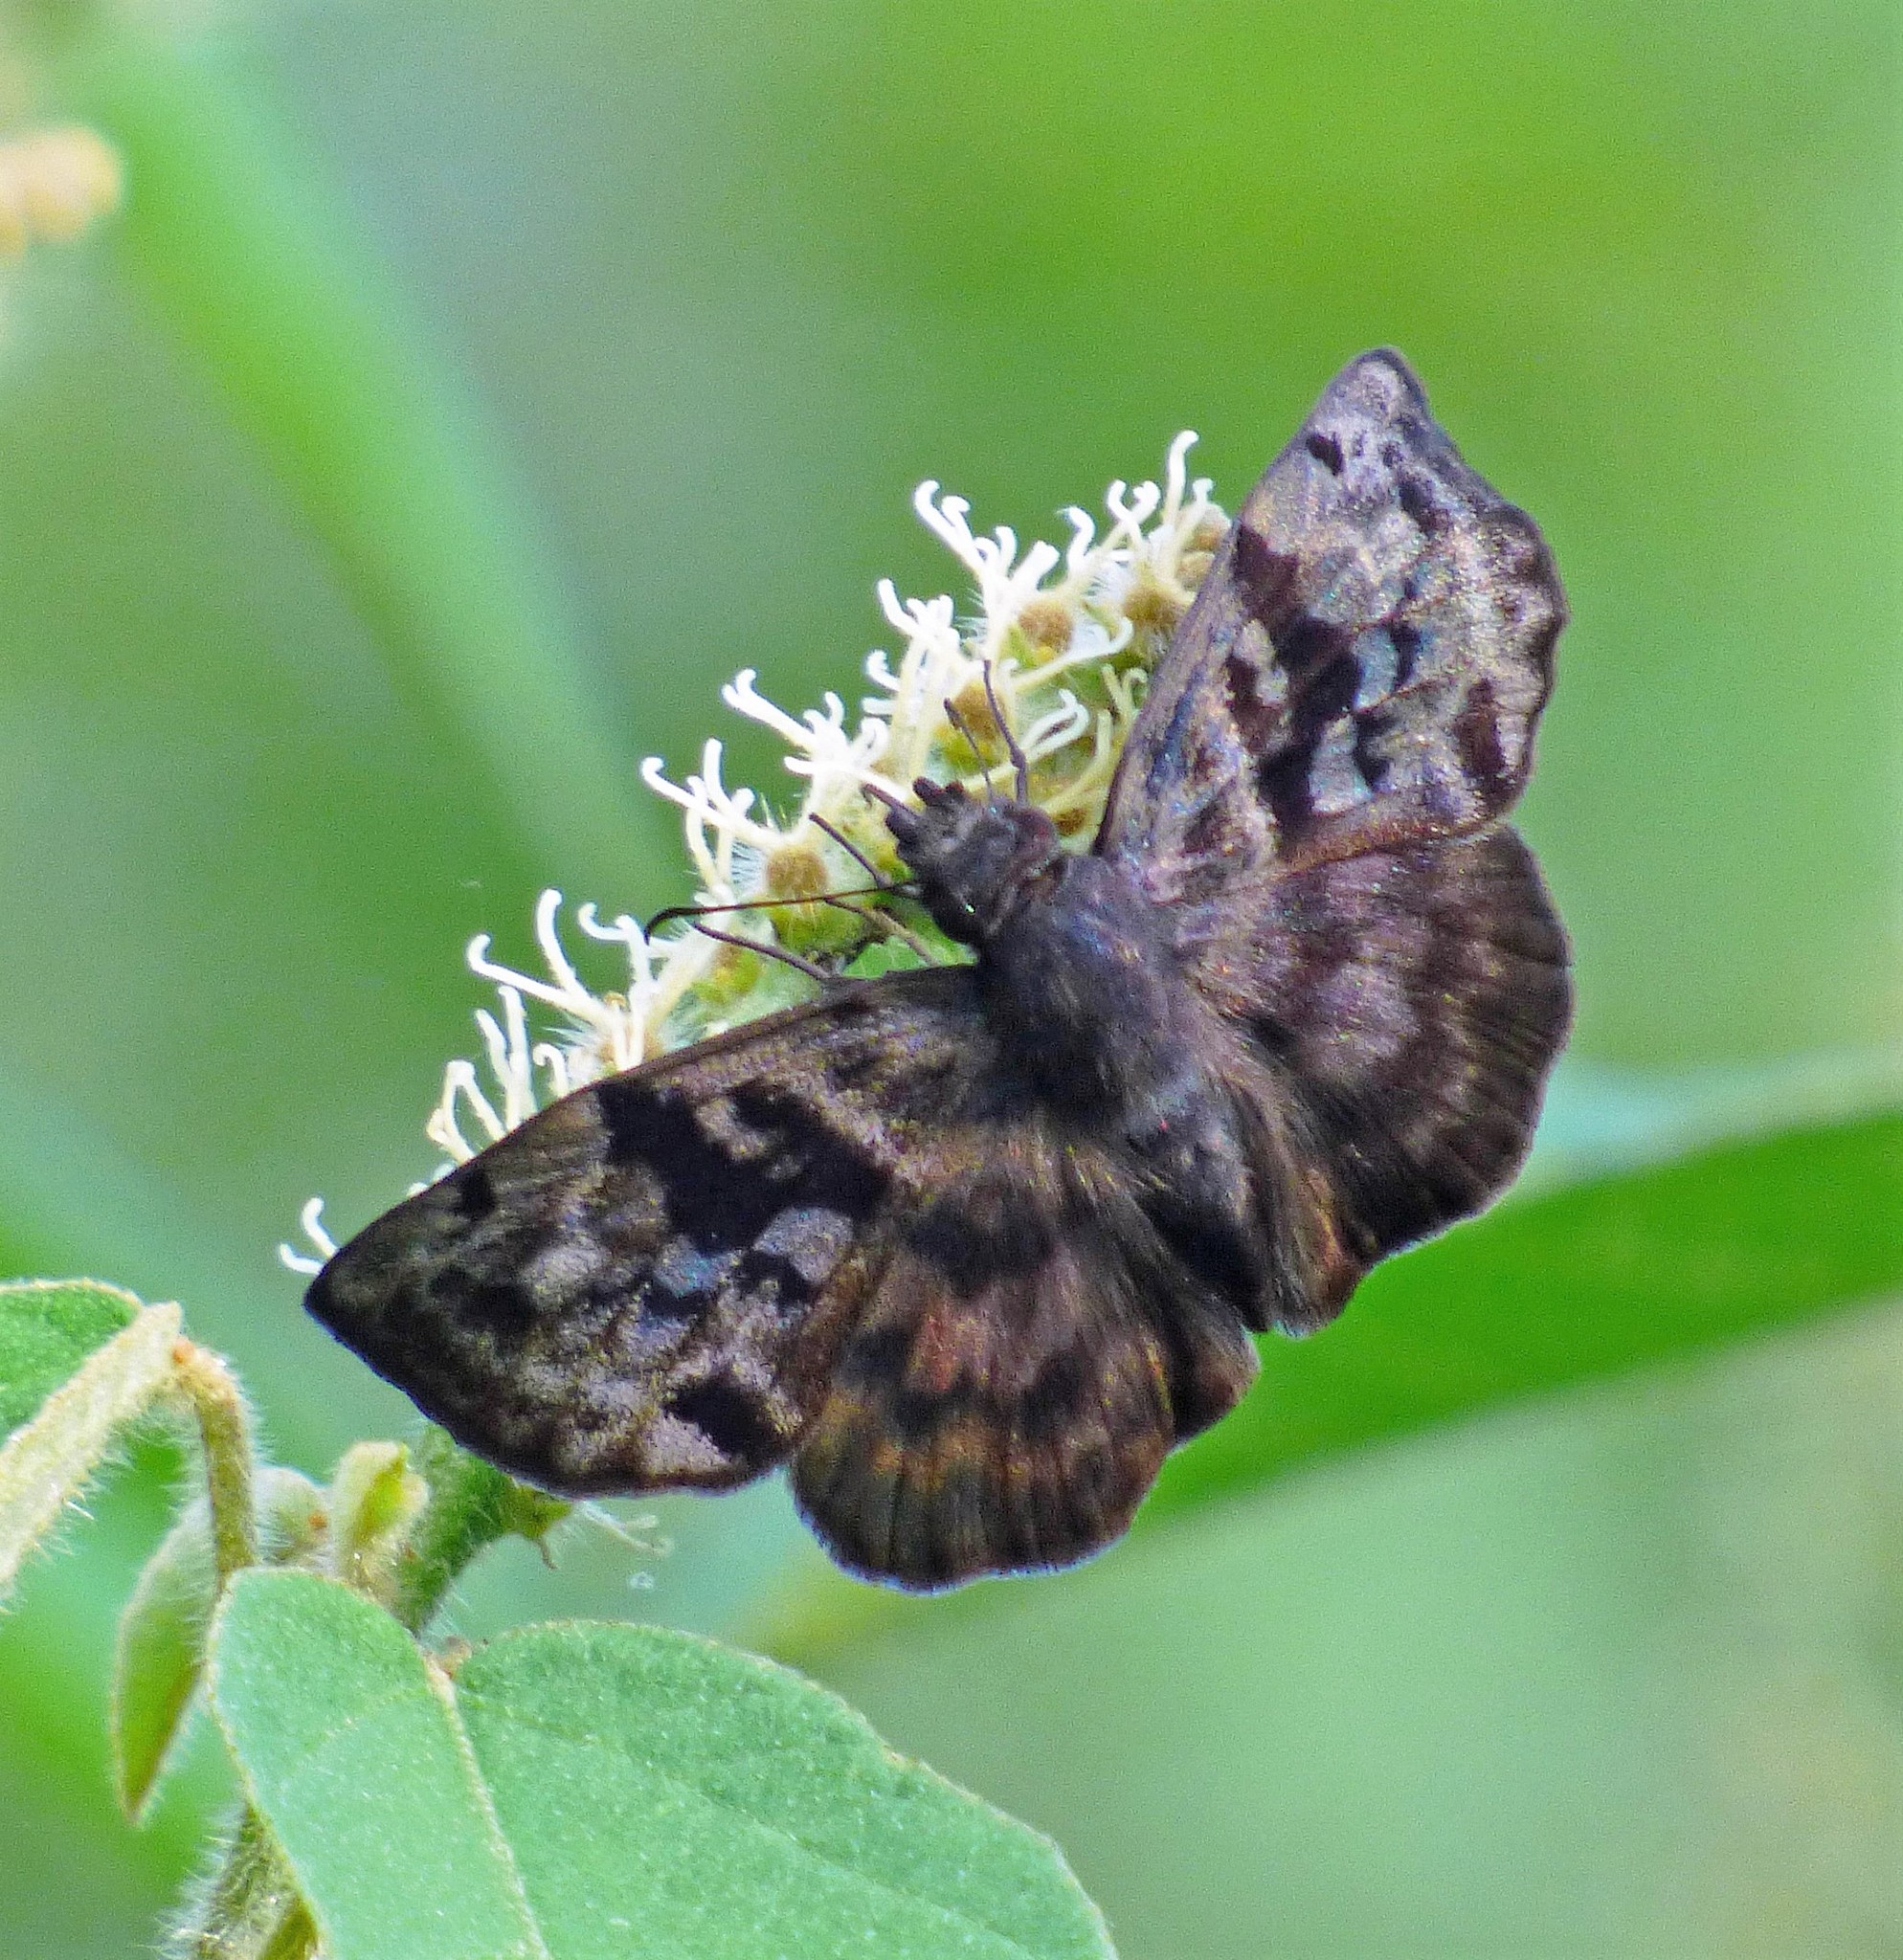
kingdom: Animalia
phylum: Arthropoda
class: Insecta
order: Lepidoptera
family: Hesperiidae
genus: Ebrietas
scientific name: Ebrietas anacreon
